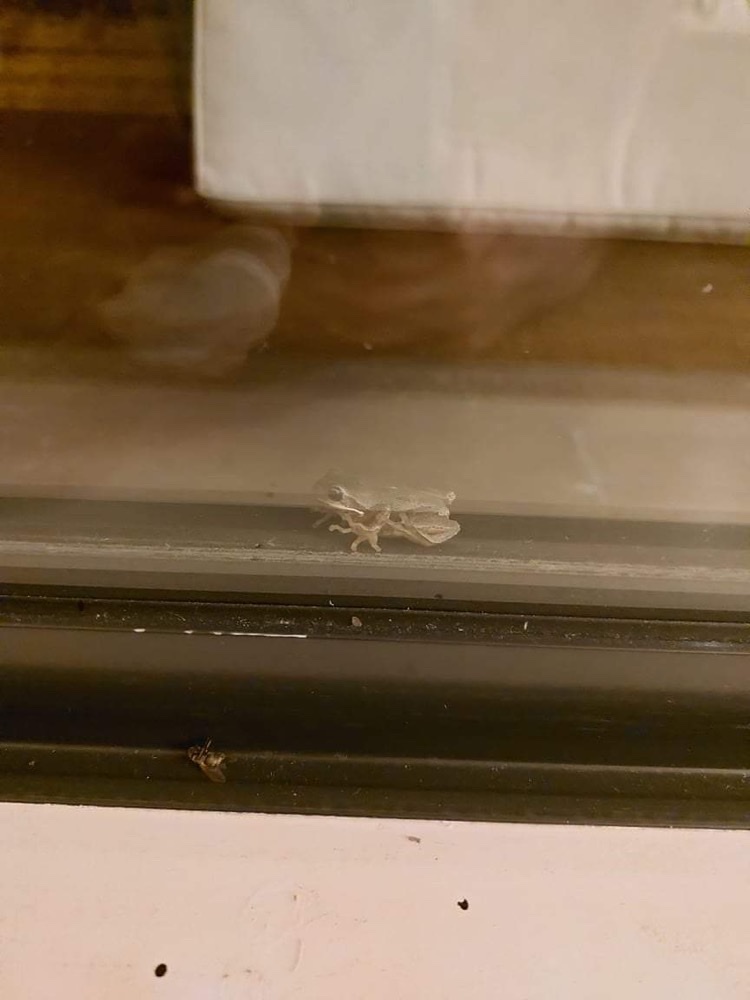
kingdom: Animalia
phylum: Chordata
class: Amphibia
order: Anura
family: Pelodryadidae
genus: Litoria
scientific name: Litoria ewingii
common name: Southern brown tree frog
